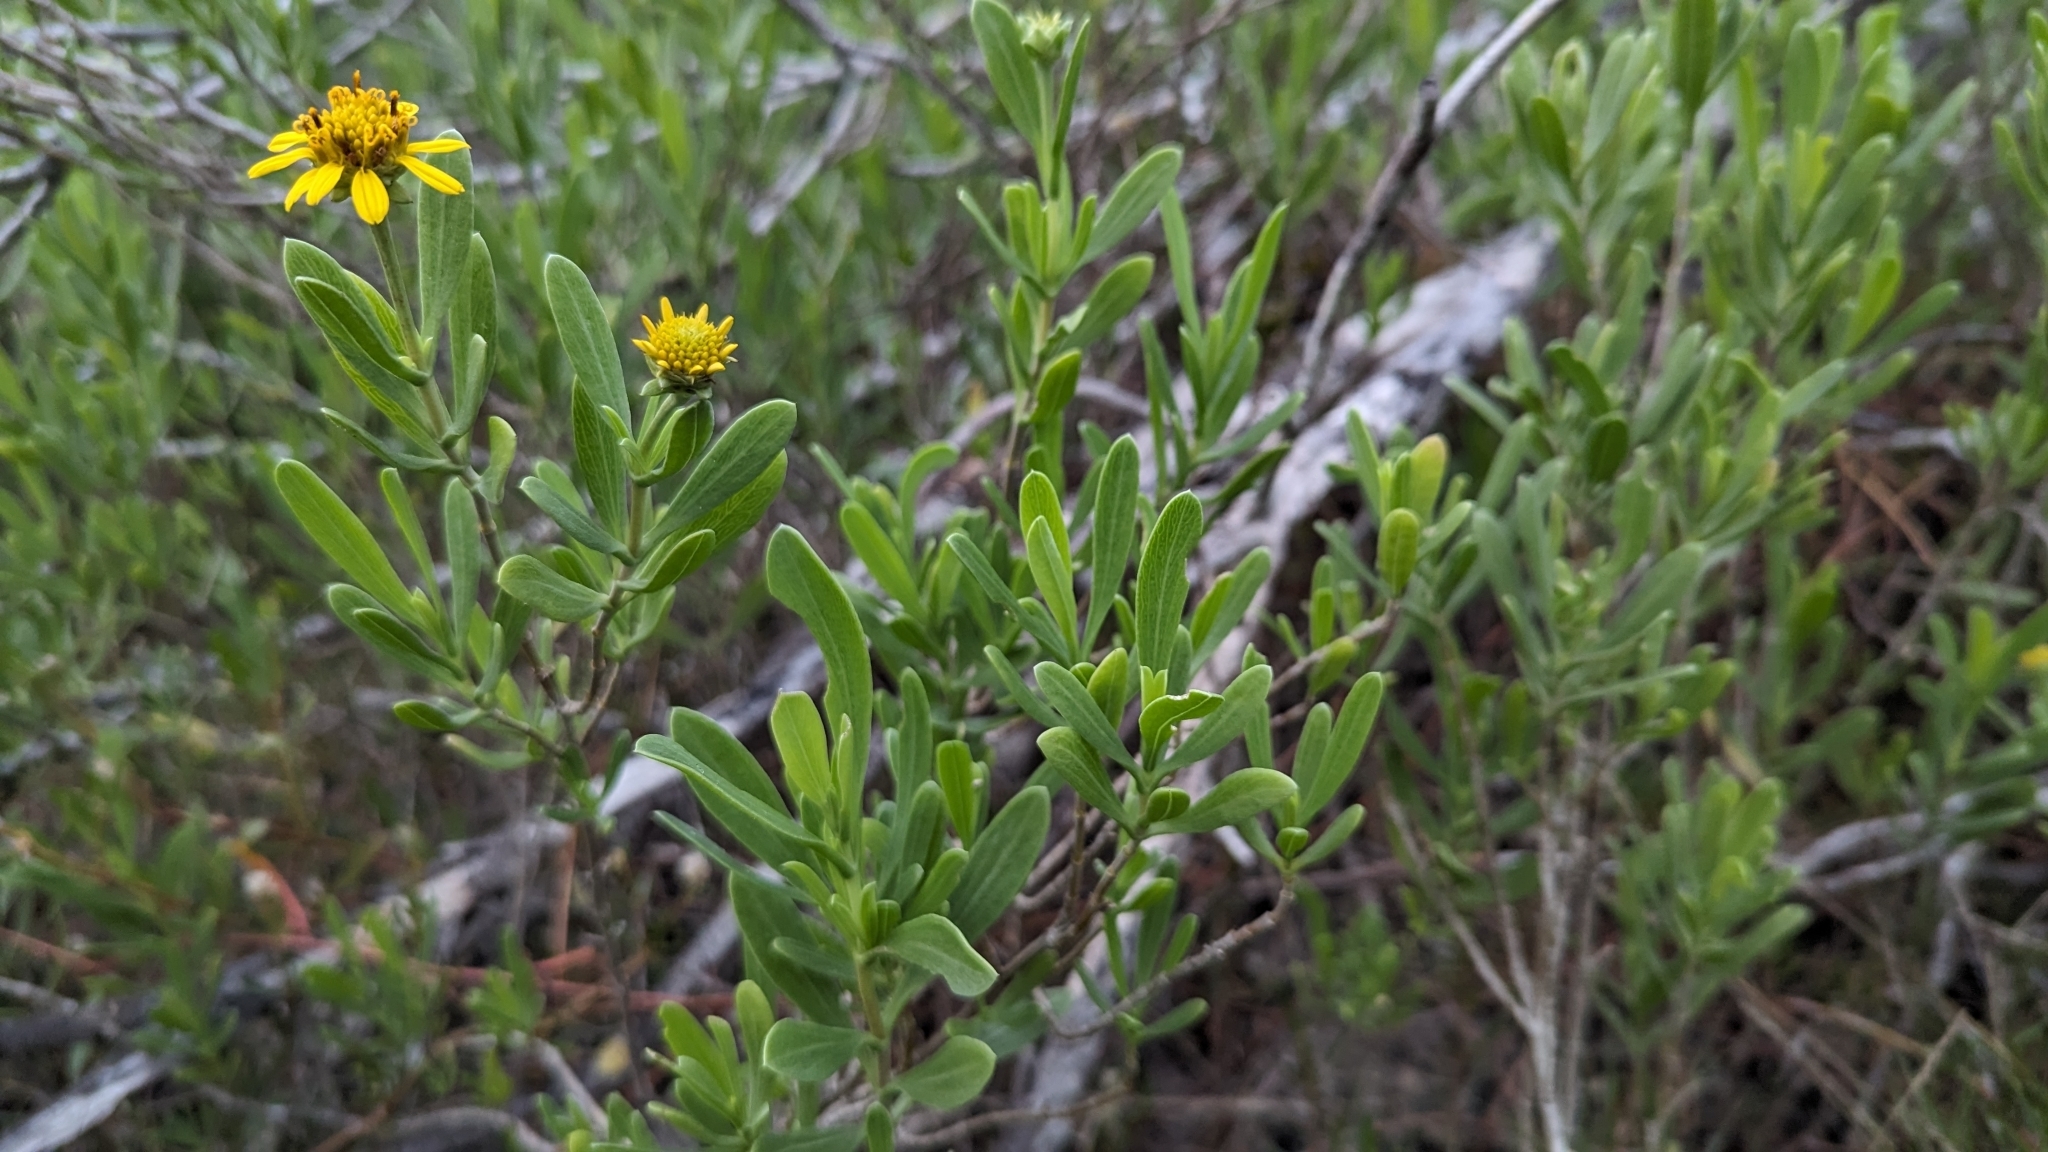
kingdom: Plantae
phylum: Tracheophyta
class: Magnoliopsida
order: Asterales
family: Asteraceae
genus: Borrichia
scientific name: Borrichia frutescens
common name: Sea oxeye
